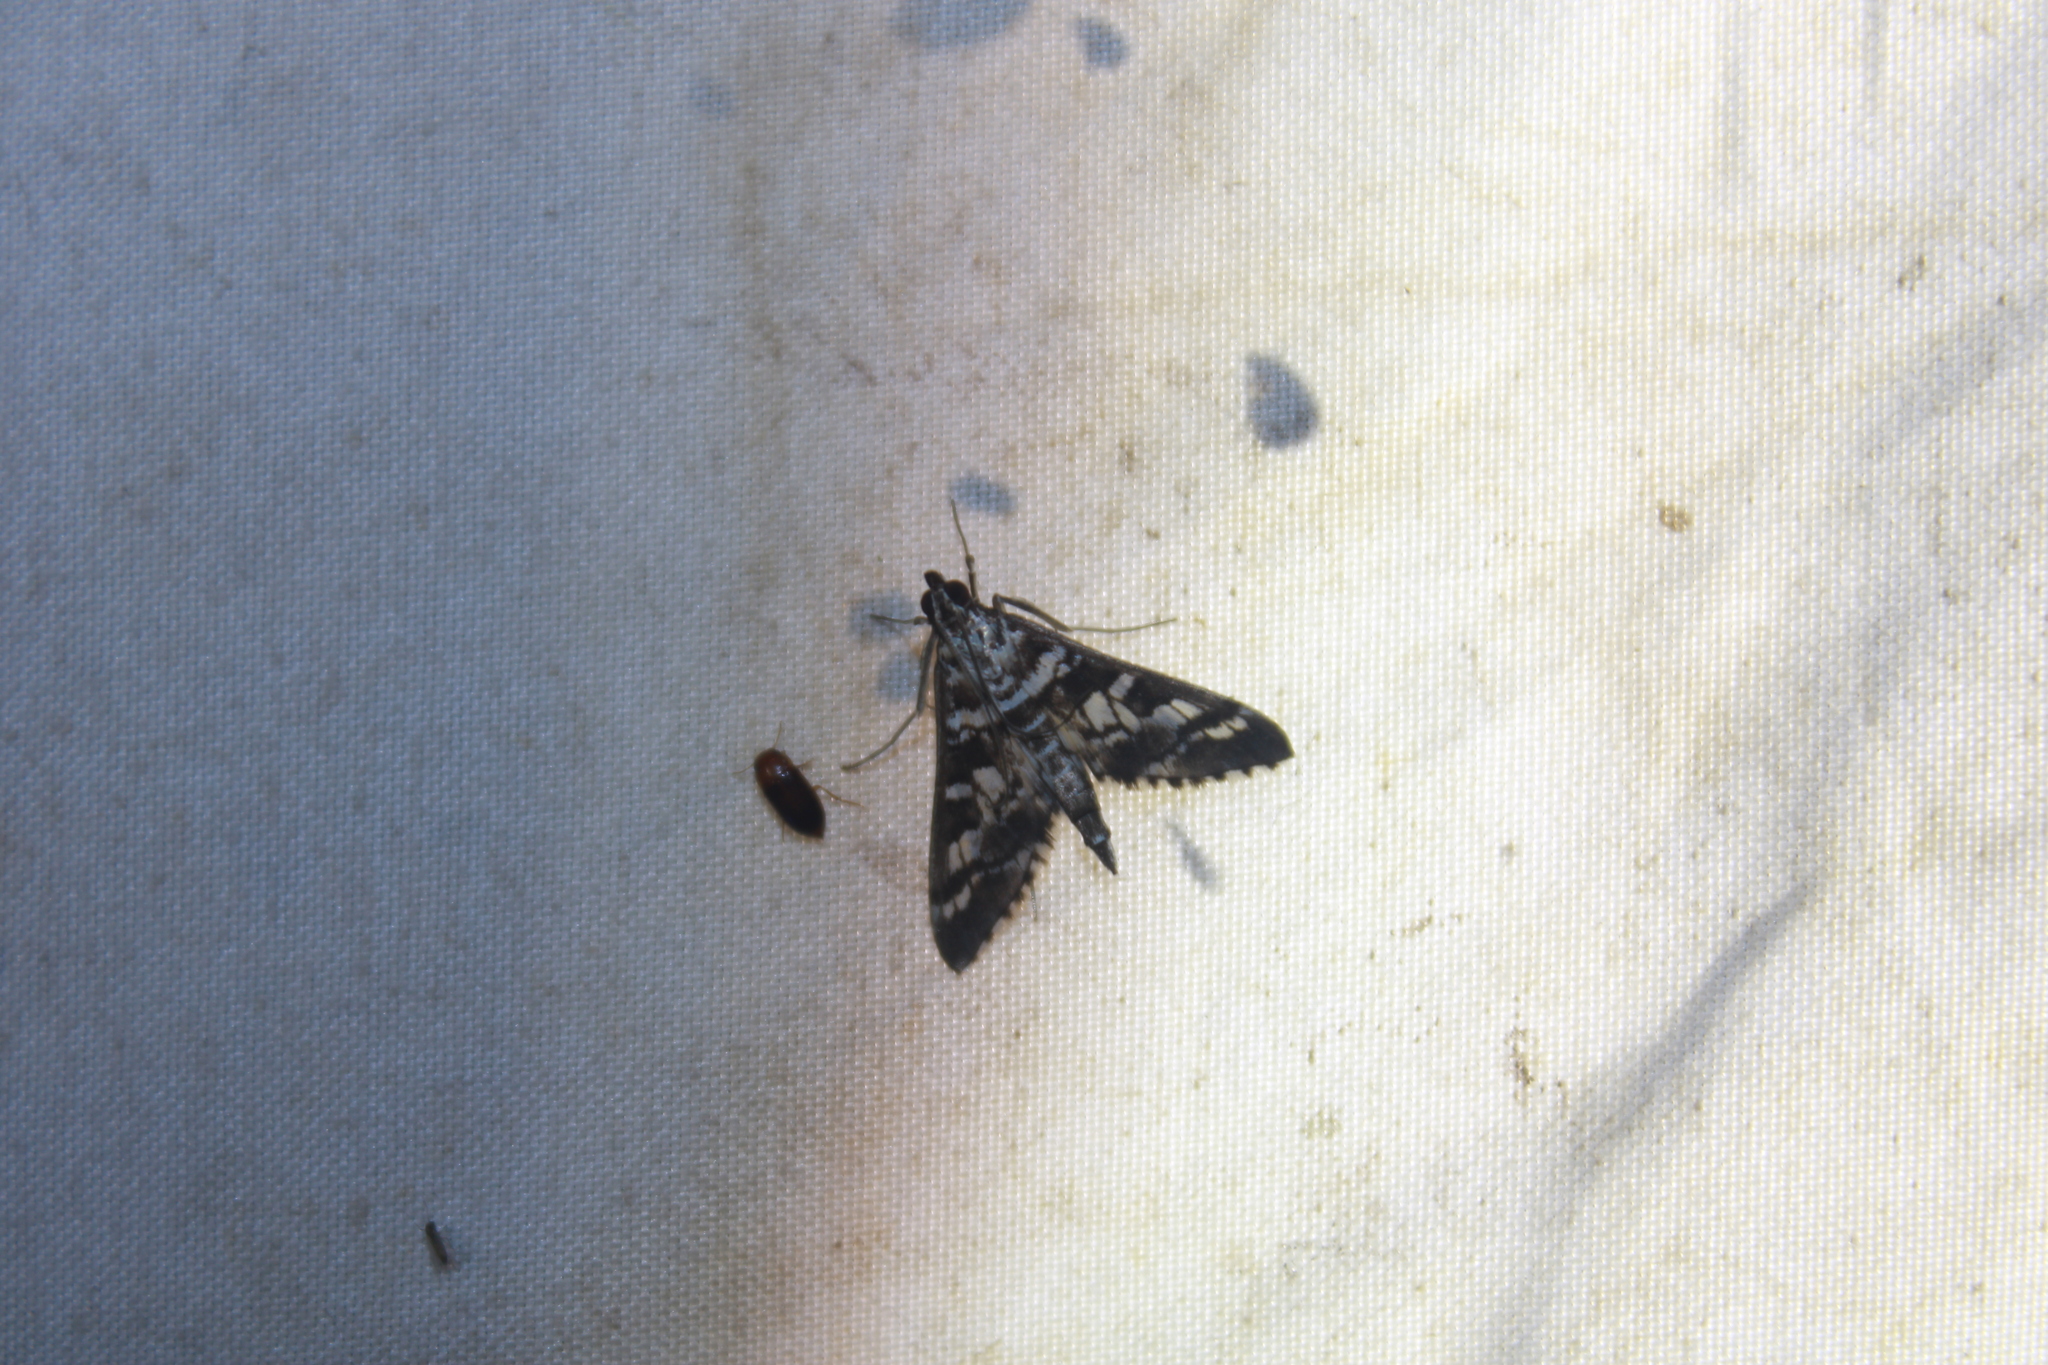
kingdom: Animalia
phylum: Arthropoda
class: Insecta
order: Lepidoptera
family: Crambidae
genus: Epipagis
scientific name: Epipagis forsythae
